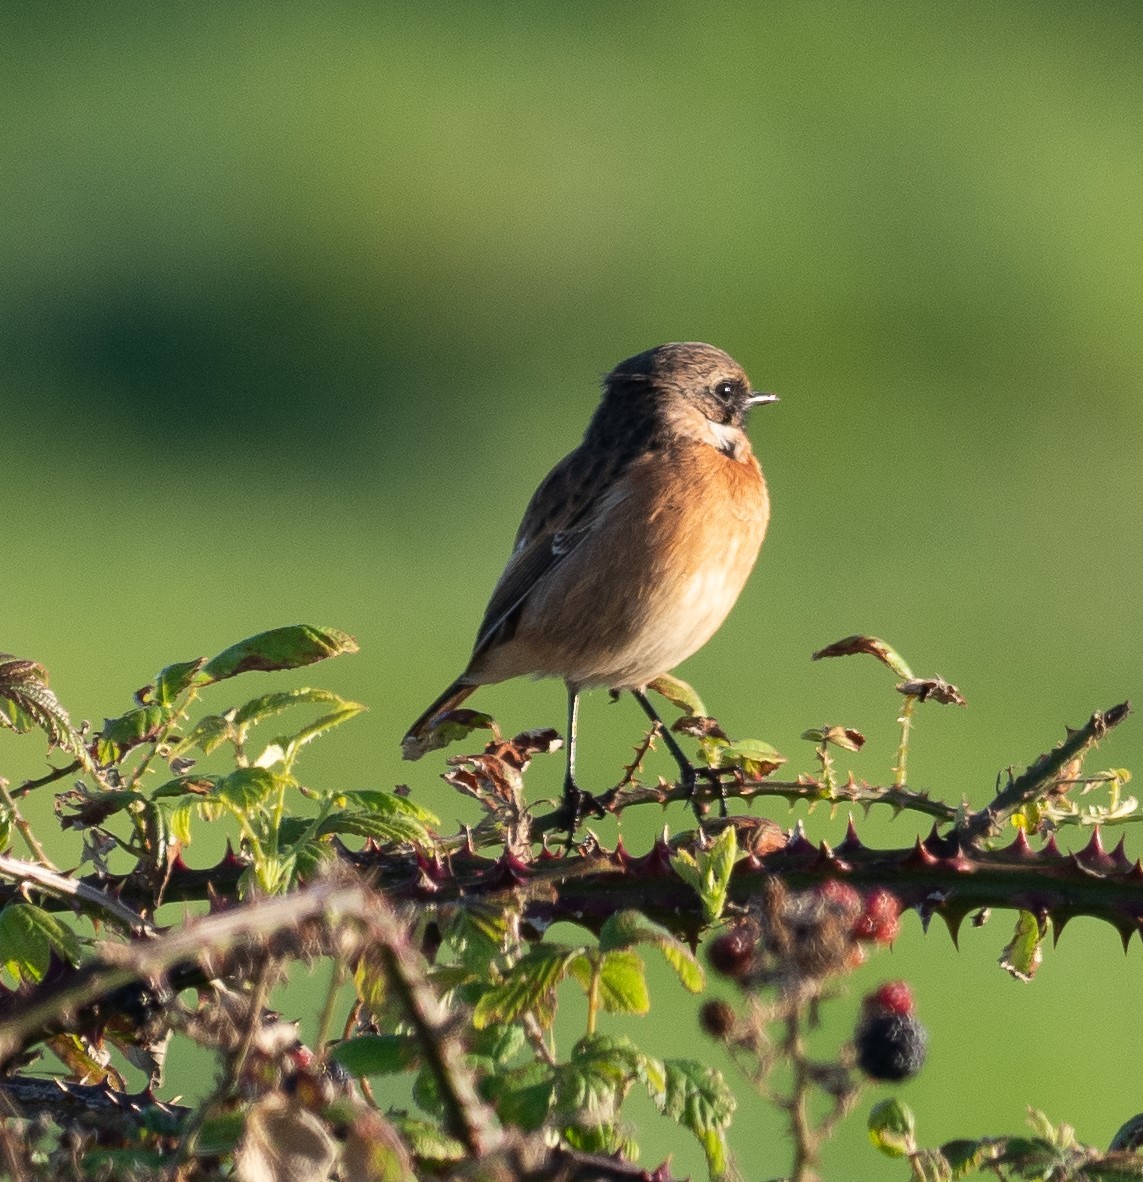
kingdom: Animalia
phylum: Chordata
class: Aves
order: Passeriformes
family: Muscicapidae
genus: Saxicola
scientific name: Saxicola rubicola
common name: European stonechat
